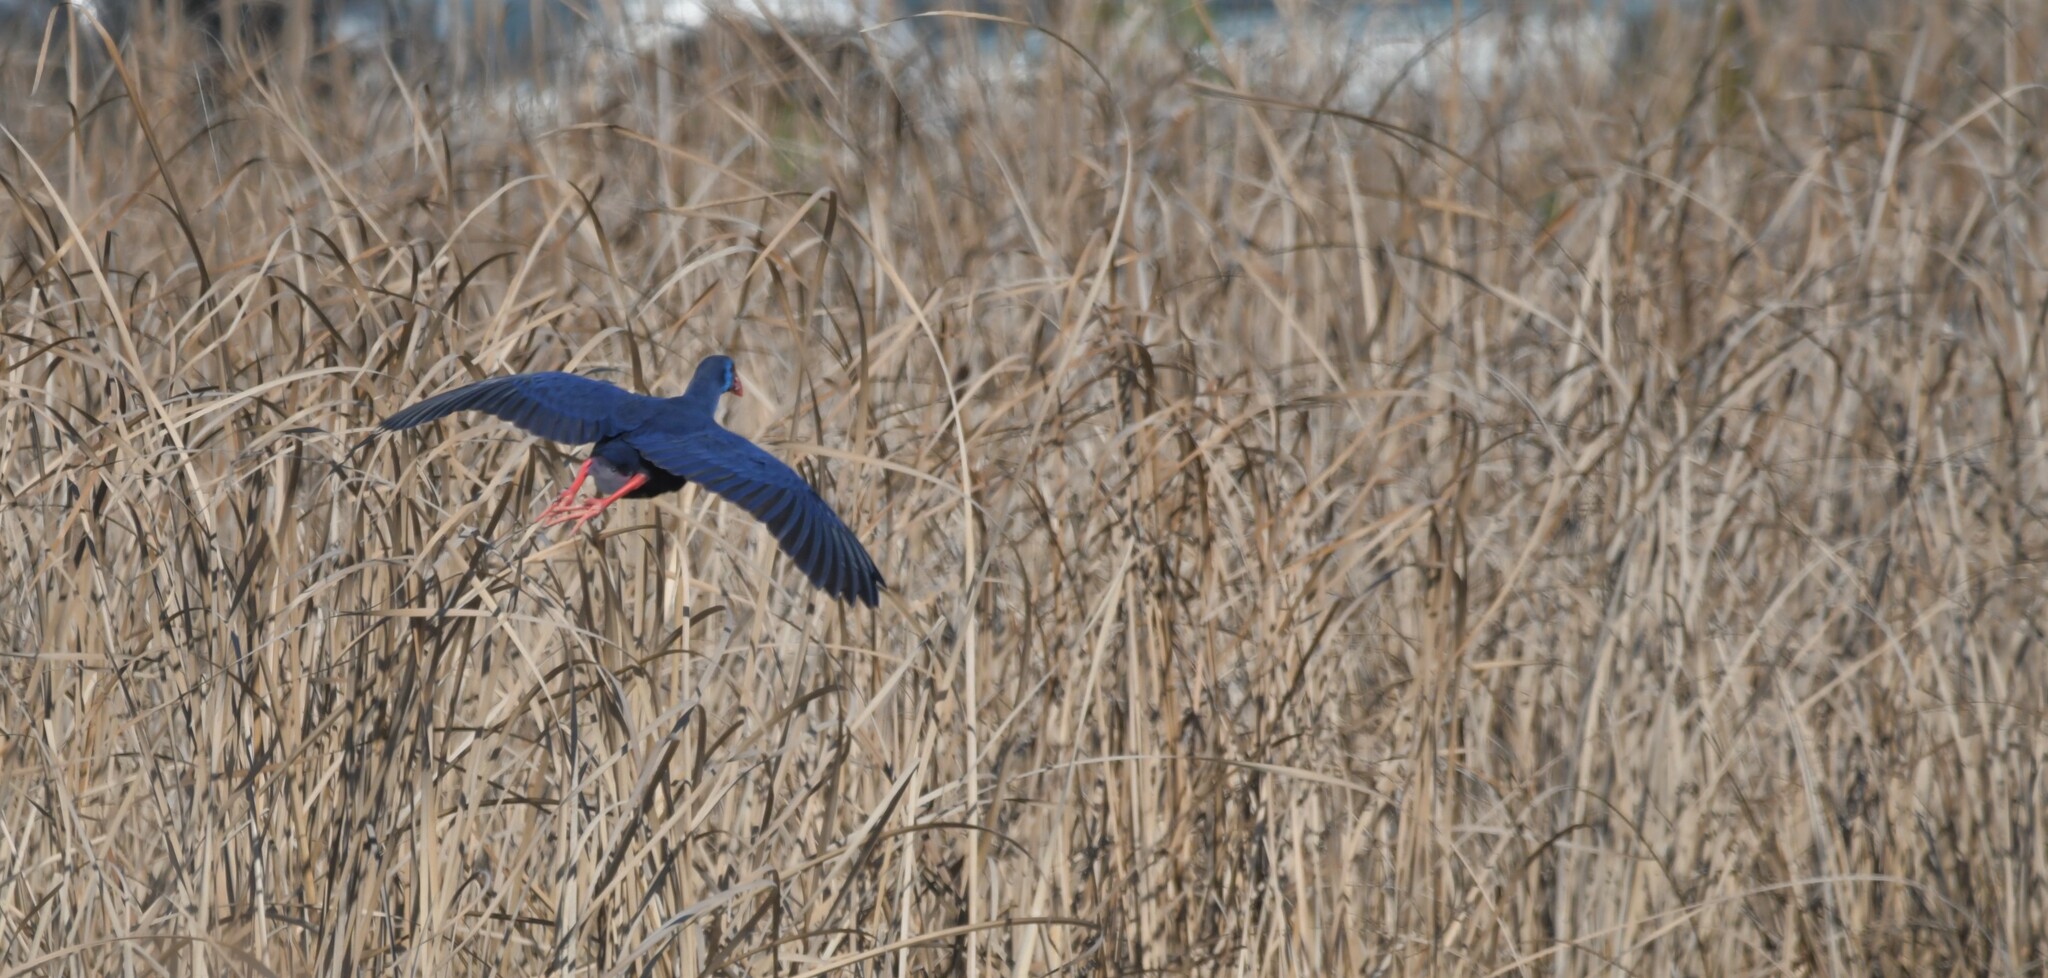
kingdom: Animalia
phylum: Chordata
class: Aves
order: Gruiformes
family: Rallidae
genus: Porphyrio
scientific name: Porphyrio porphyrio
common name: Purple swamphen
